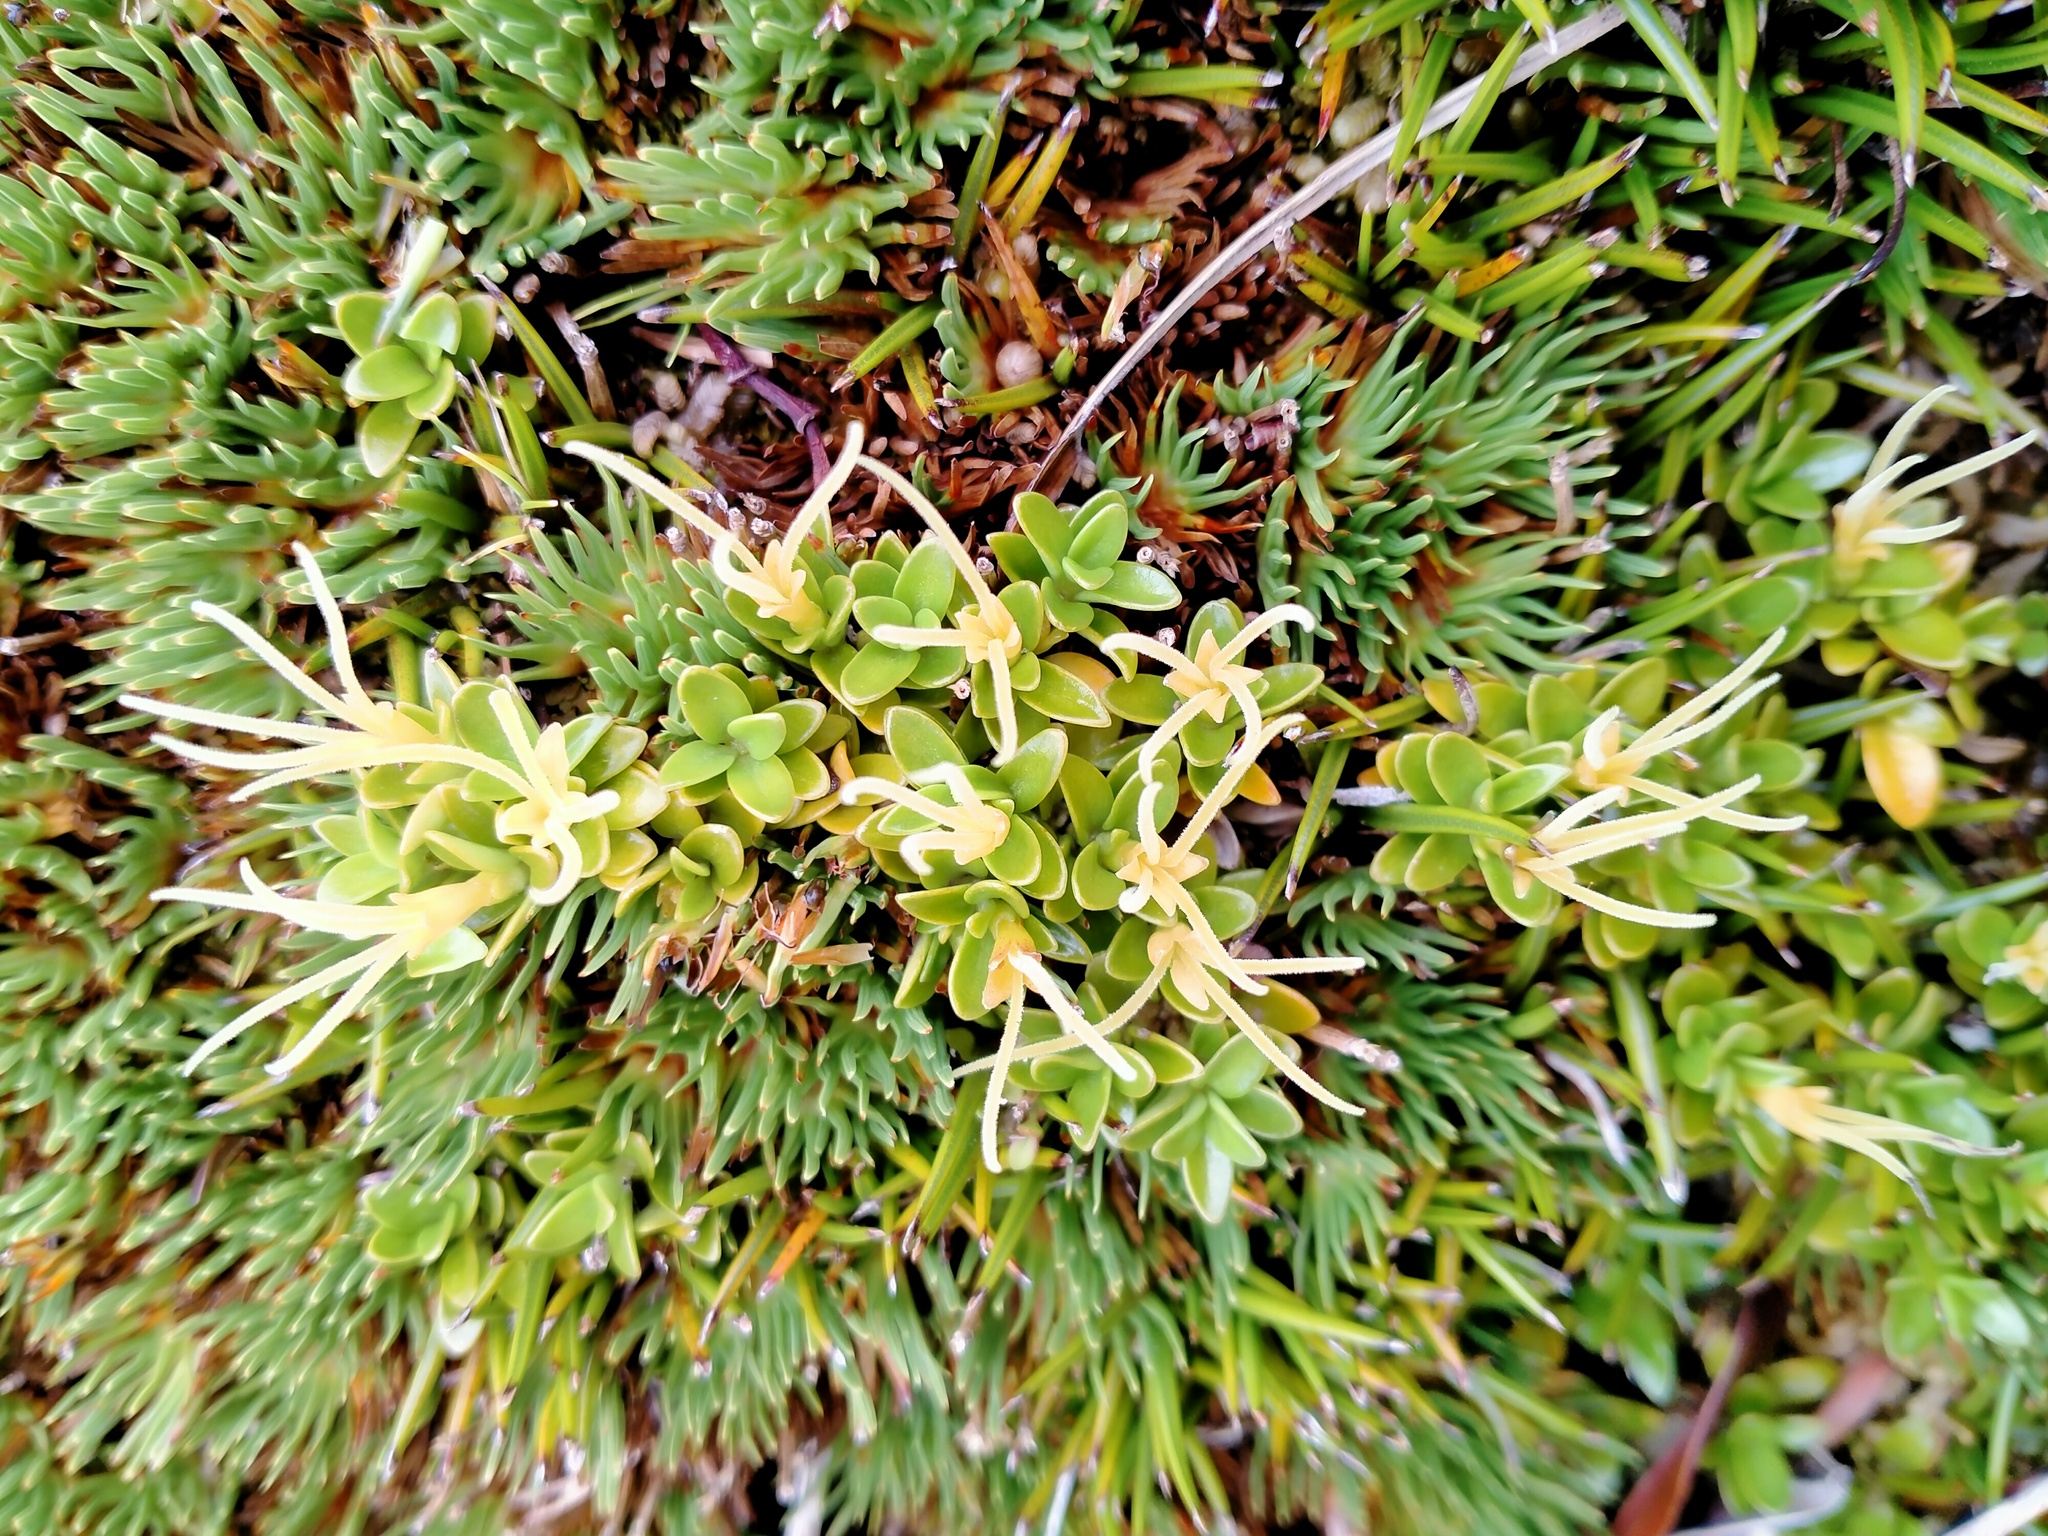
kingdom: Plantae
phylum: Tracheophyta
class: Magnoliopsida
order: Gentianales
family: Rubiaceae
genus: Coprosma
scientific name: Coprosma perpusilla
